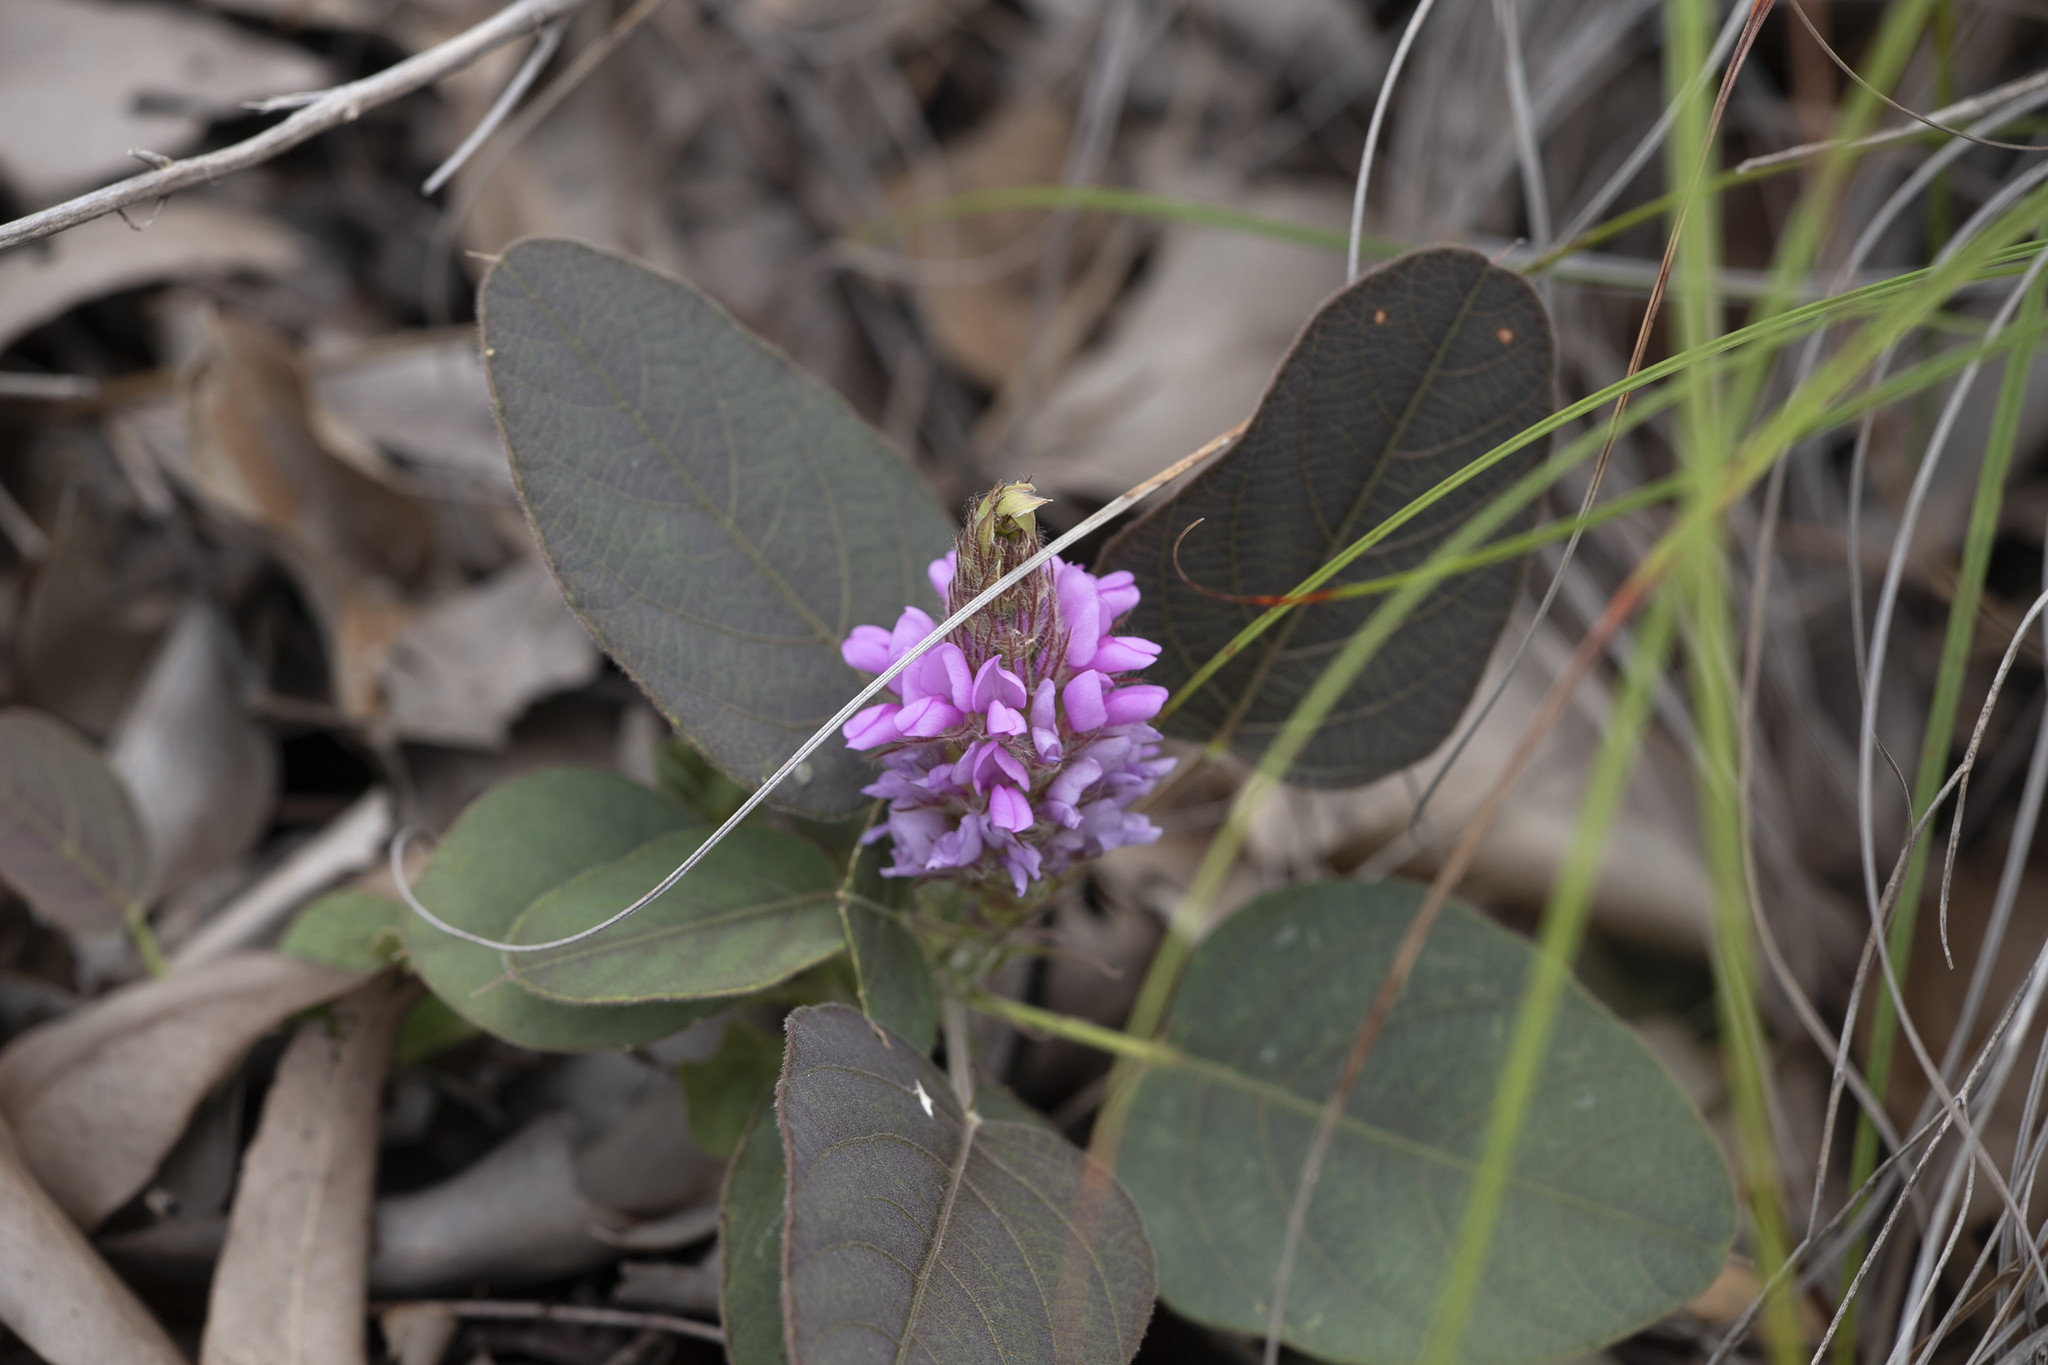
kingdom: Plantae
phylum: Tracheophyta
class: Magnoliopsida
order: Fabales
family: Fabaceae
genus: Uraria
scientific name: Uraria lagopodioides
